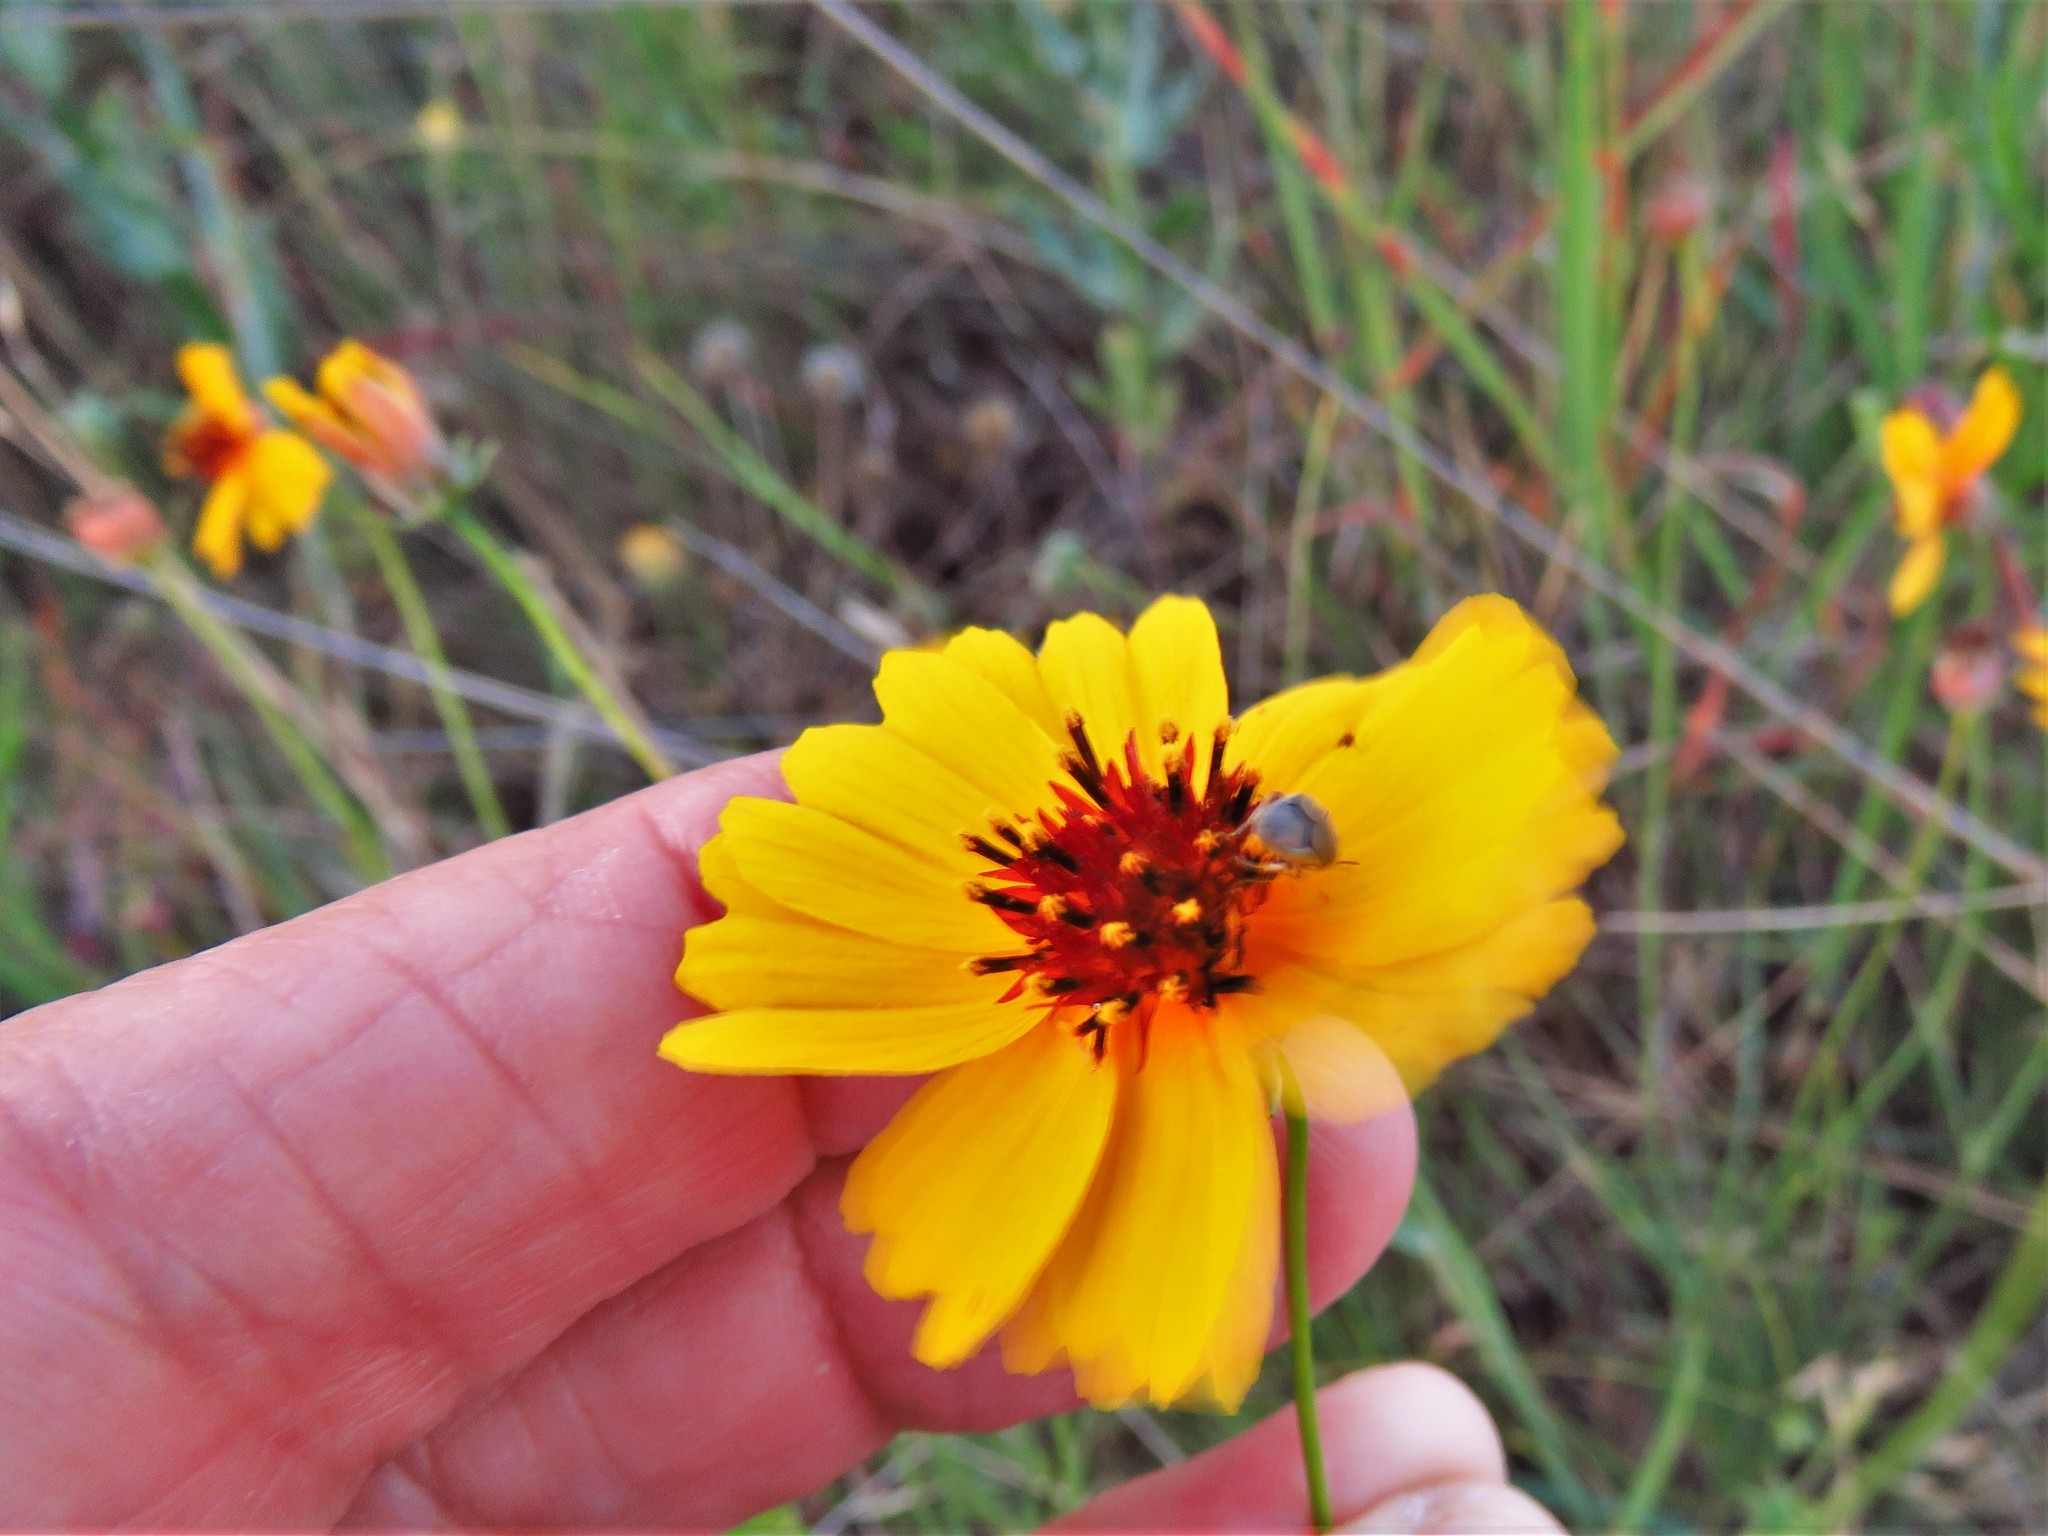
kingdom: Plantae
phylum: Tracheophyta
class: Magnoliopsida
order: Asterales
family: Asteraceae
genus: Thelesperma
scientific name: Thelesperma filifolium
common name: Stiff greenthread
